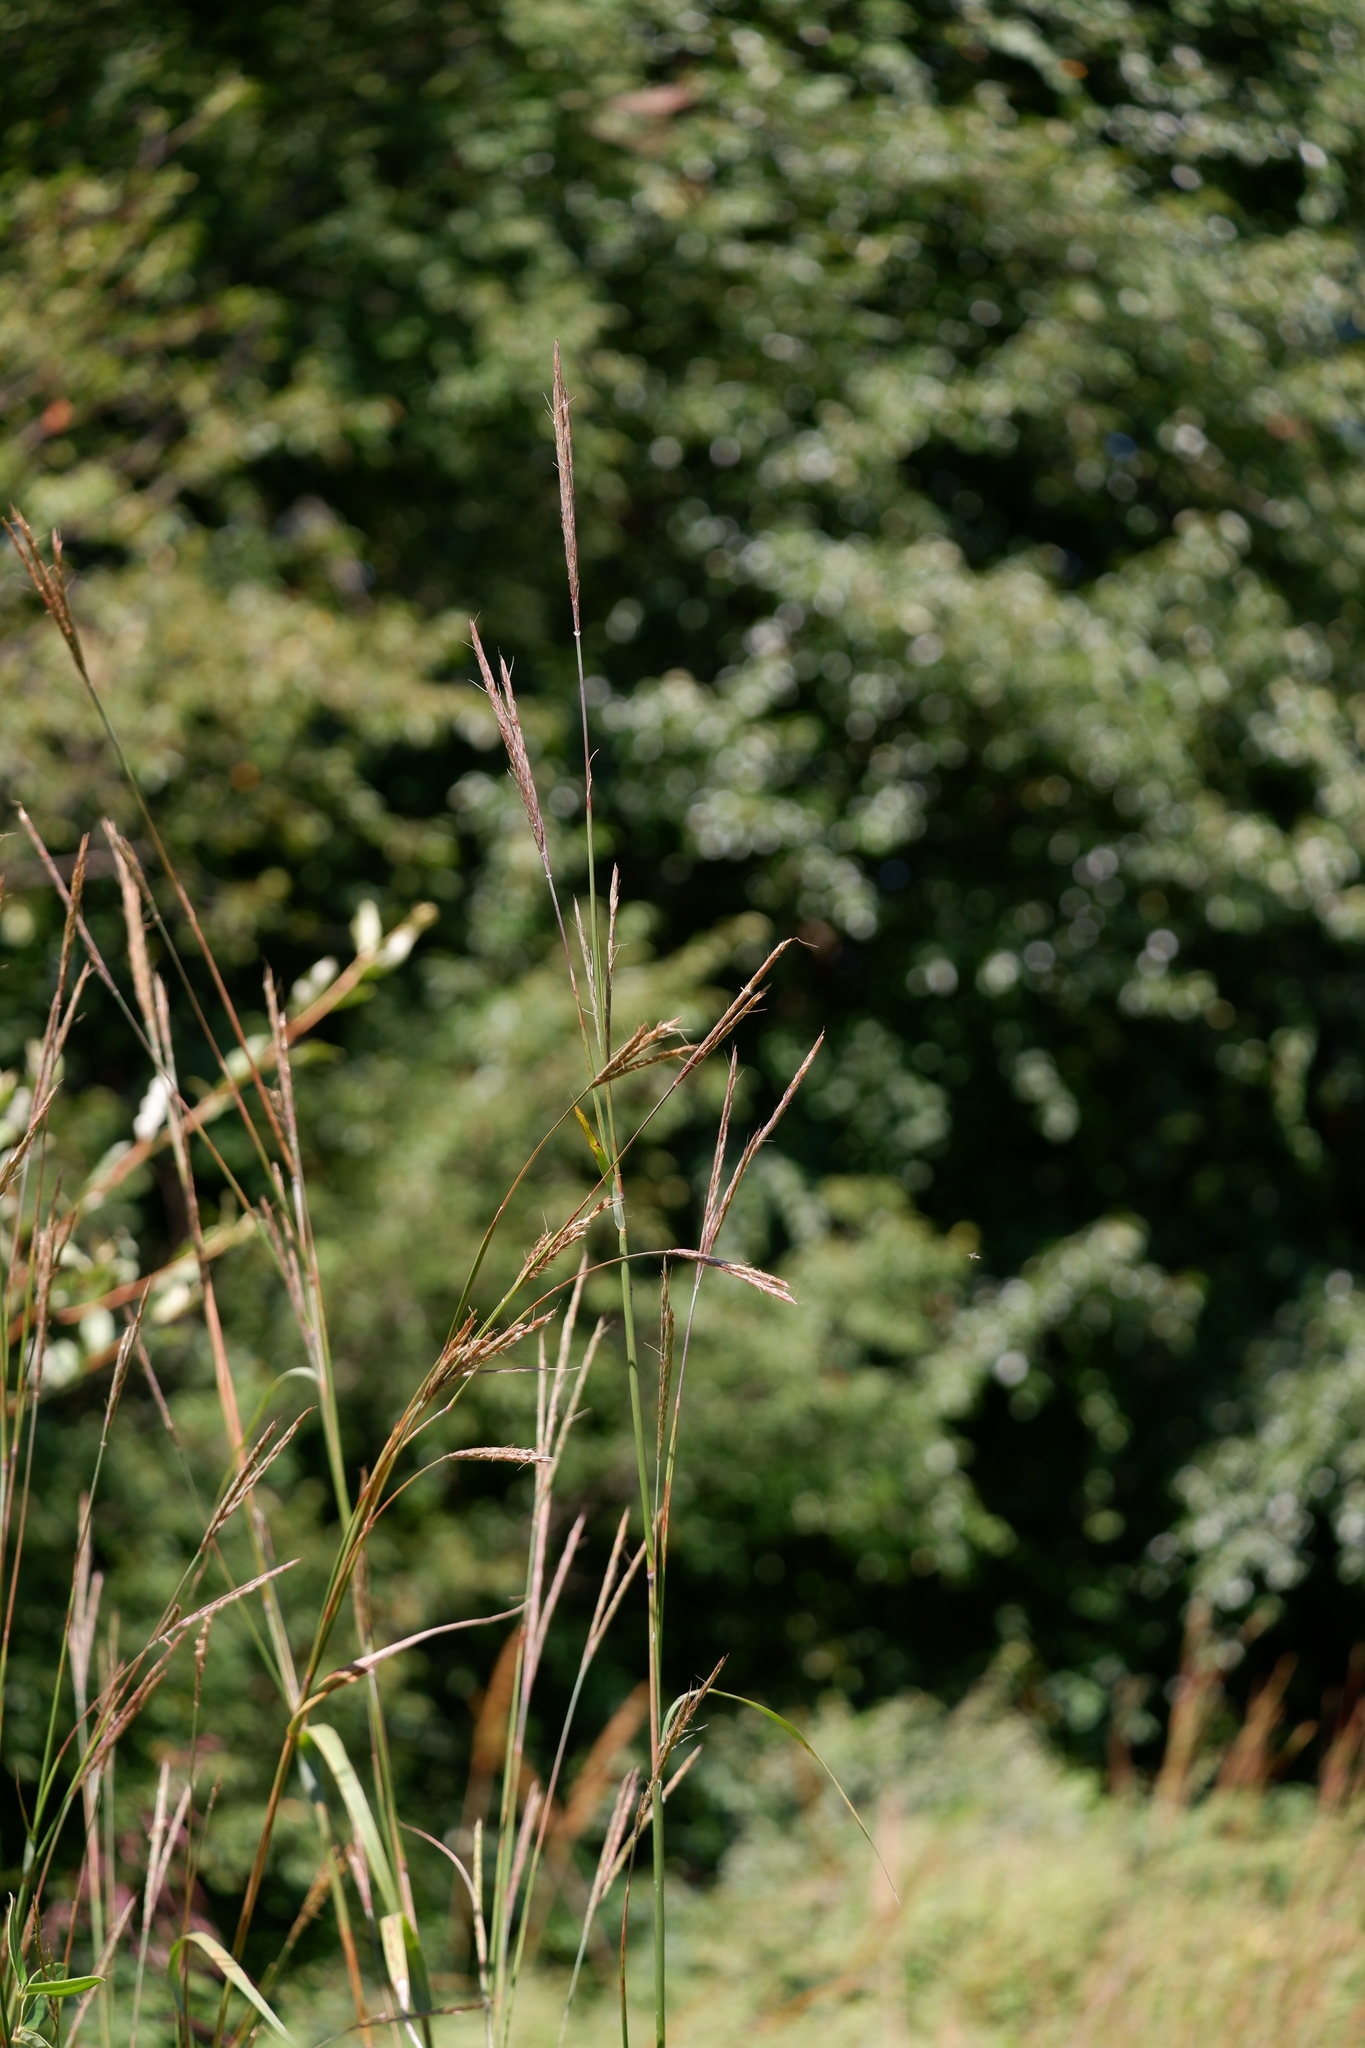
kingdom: Plantae
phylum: Tracheophyta
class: Liliopsida
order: Poales
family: Poaceae
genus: Andropogon
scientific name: Andropogon gerardi
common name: Big bluestem
